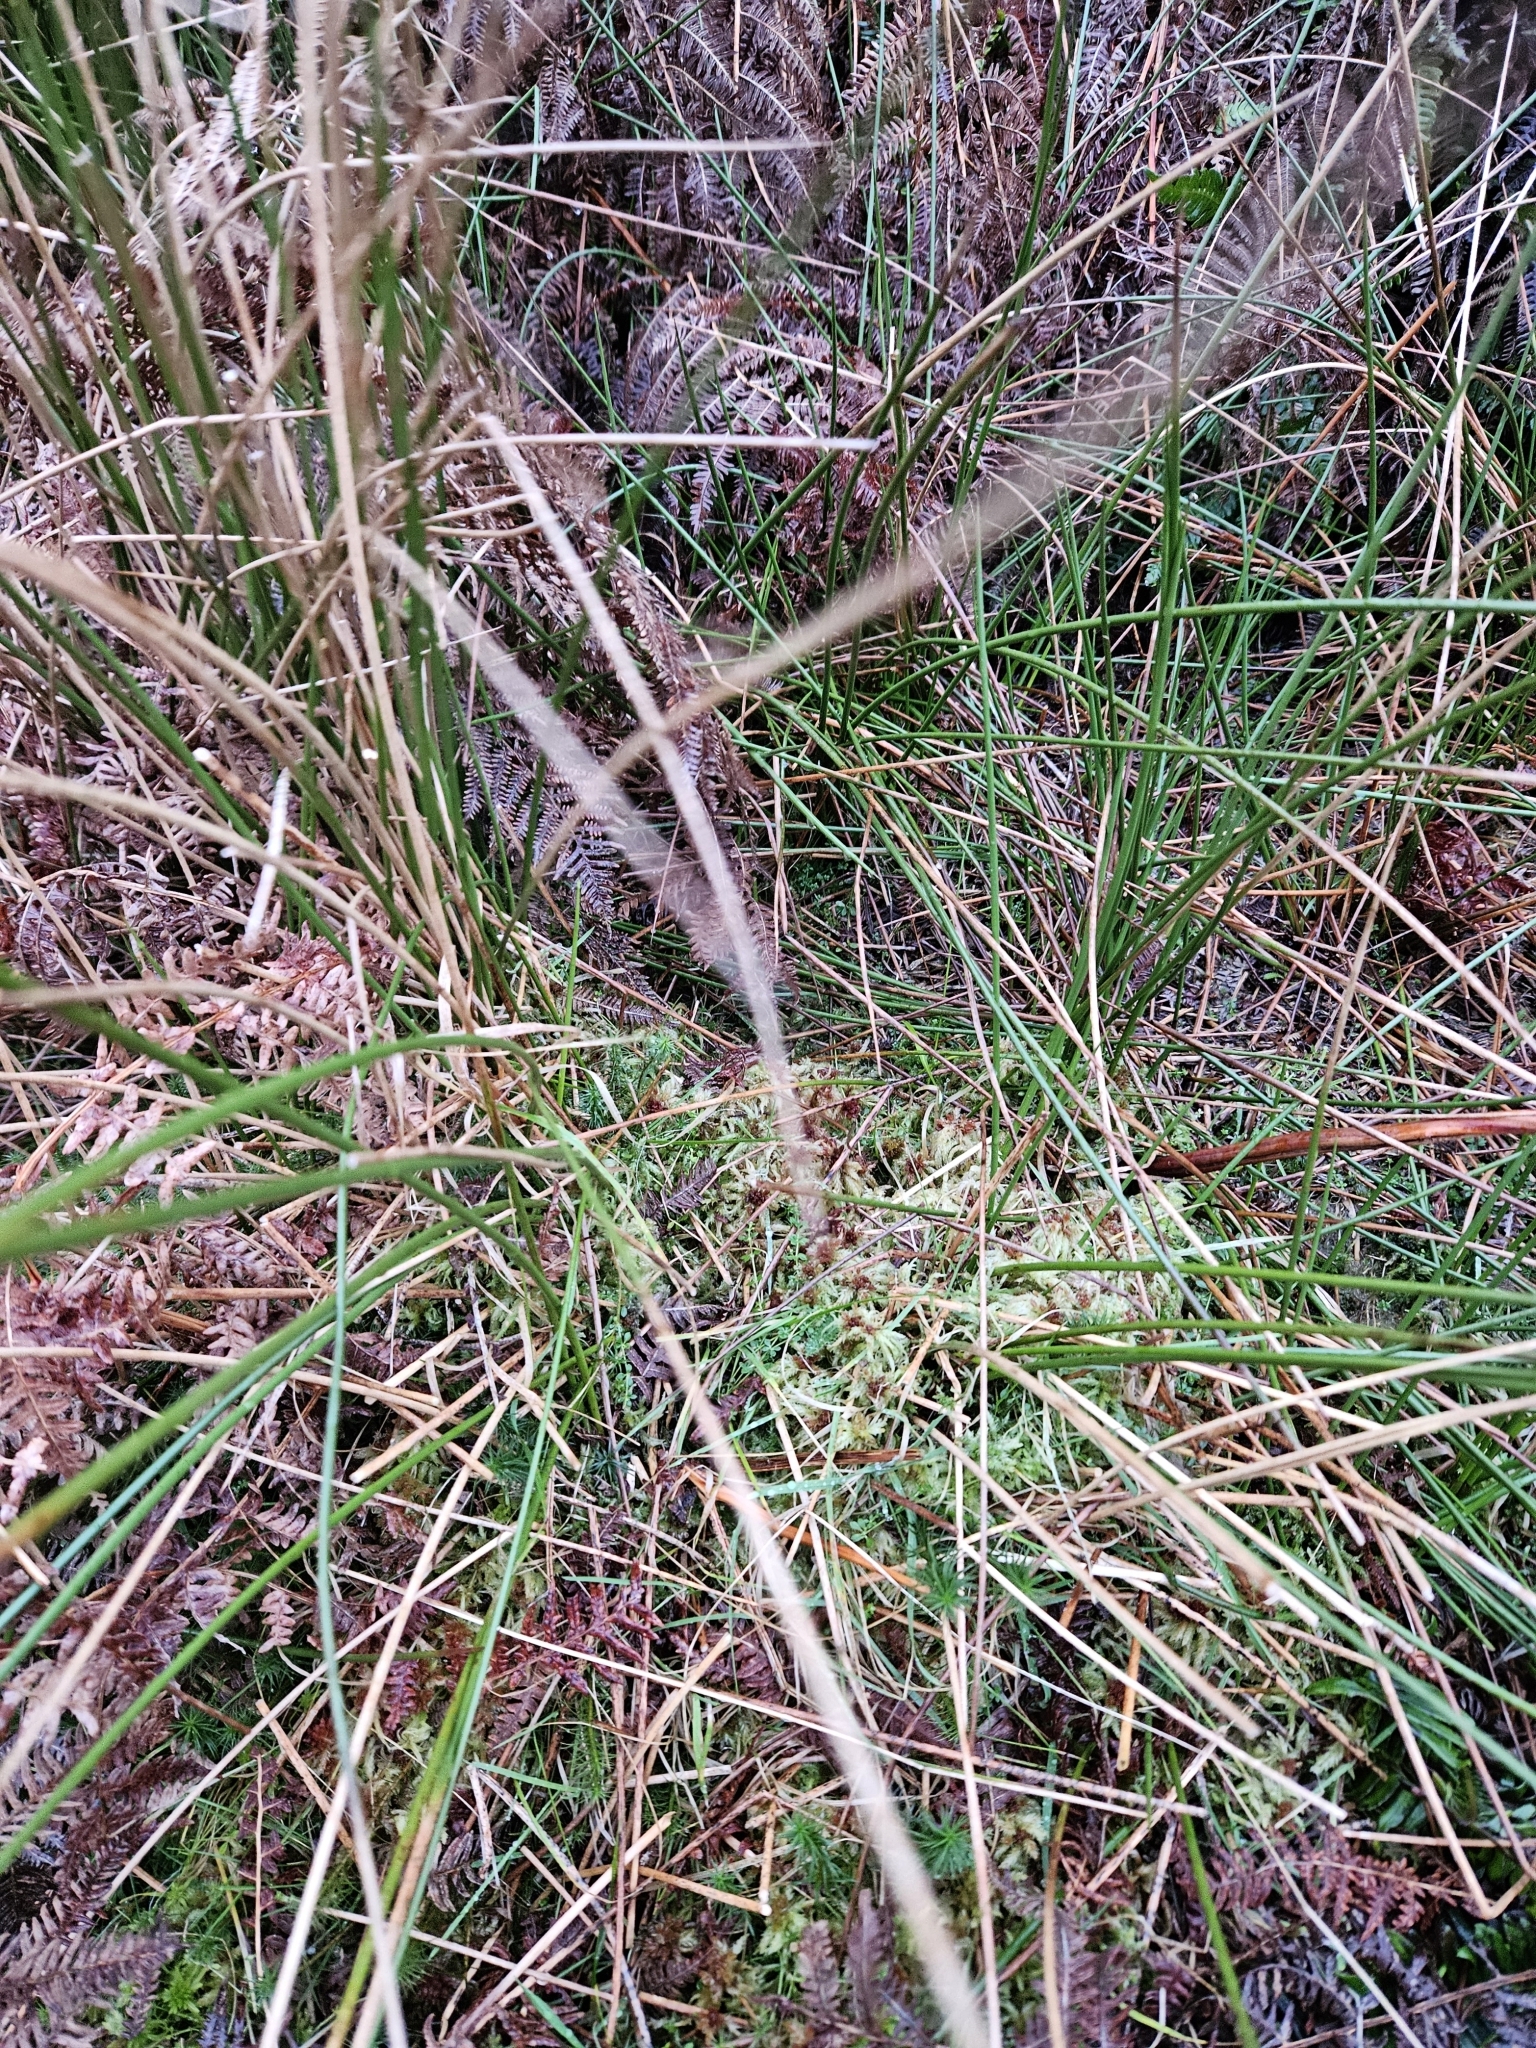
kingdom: Plantae
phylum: Bryophyta
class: Sphagnopsida
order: Sphagnales
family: Sphagnaceae
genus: Sphagnum
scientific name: Sphagnum palustre
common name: Blunt-leaved bog-moss
